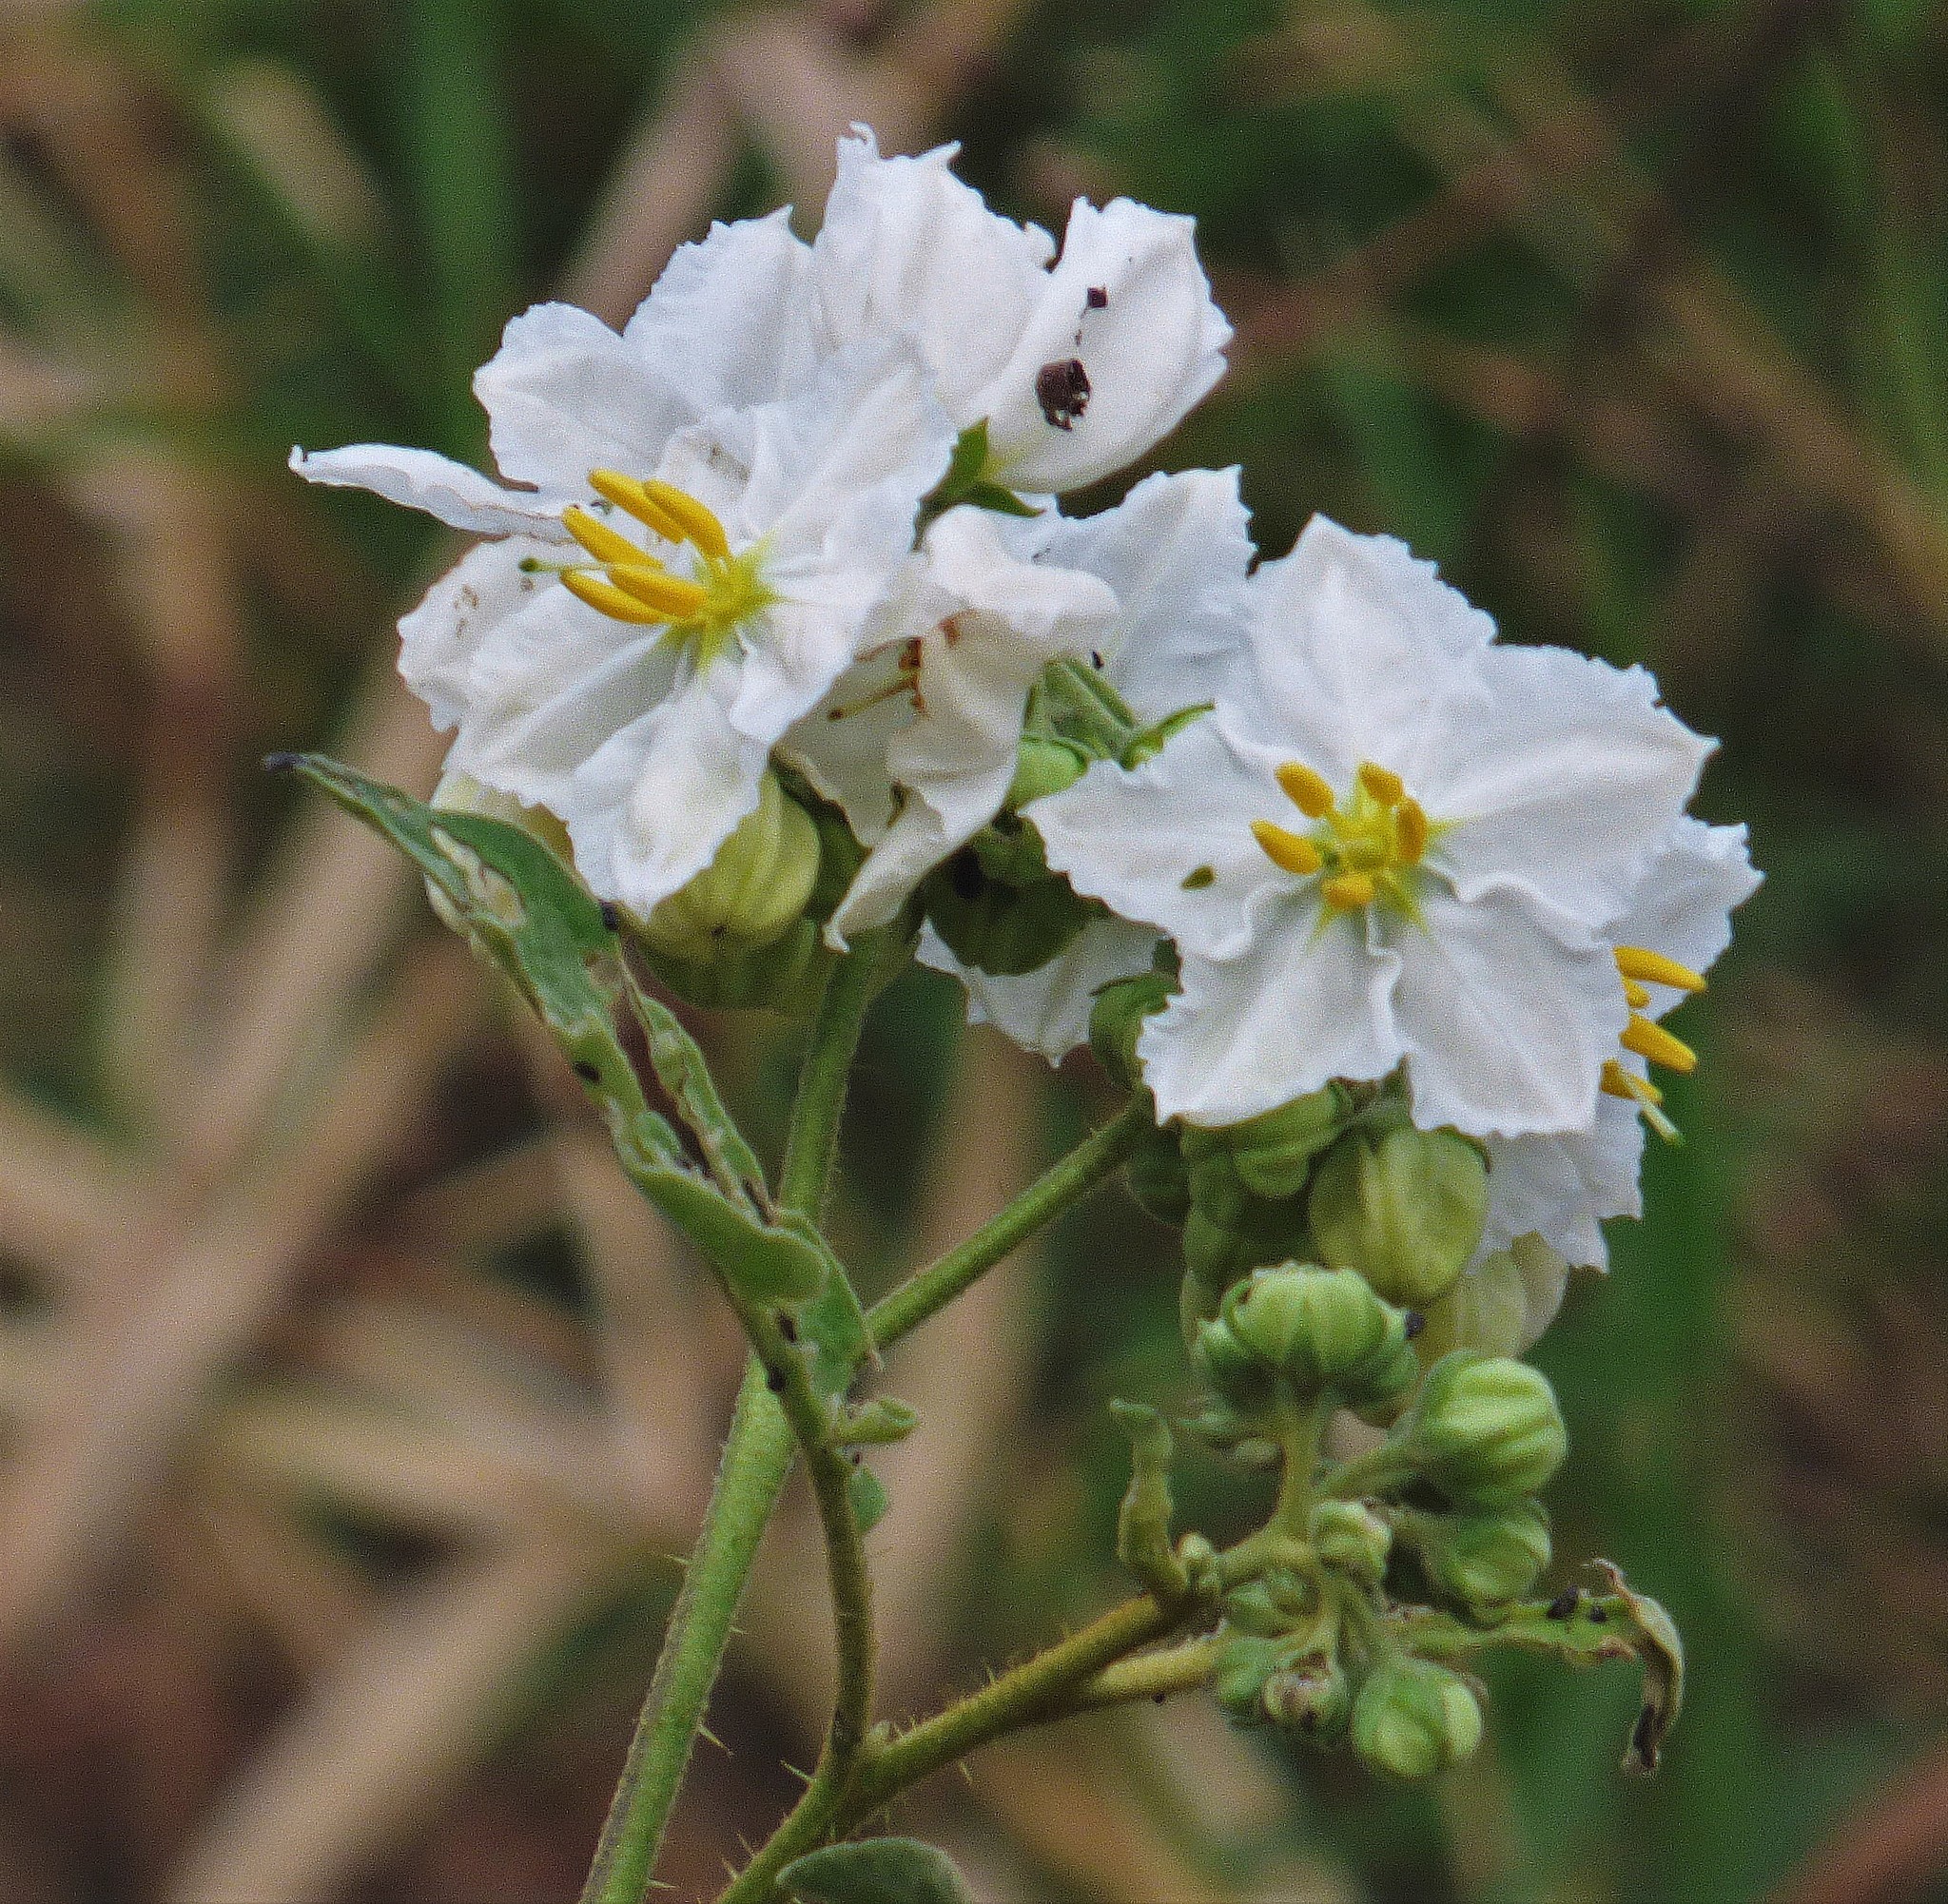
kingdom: Plantae
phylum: Tracheophyta
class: Magnoliopsida
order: Solanales
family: Solanaceae
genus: Solanum
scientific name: Solanum guaraniticum
